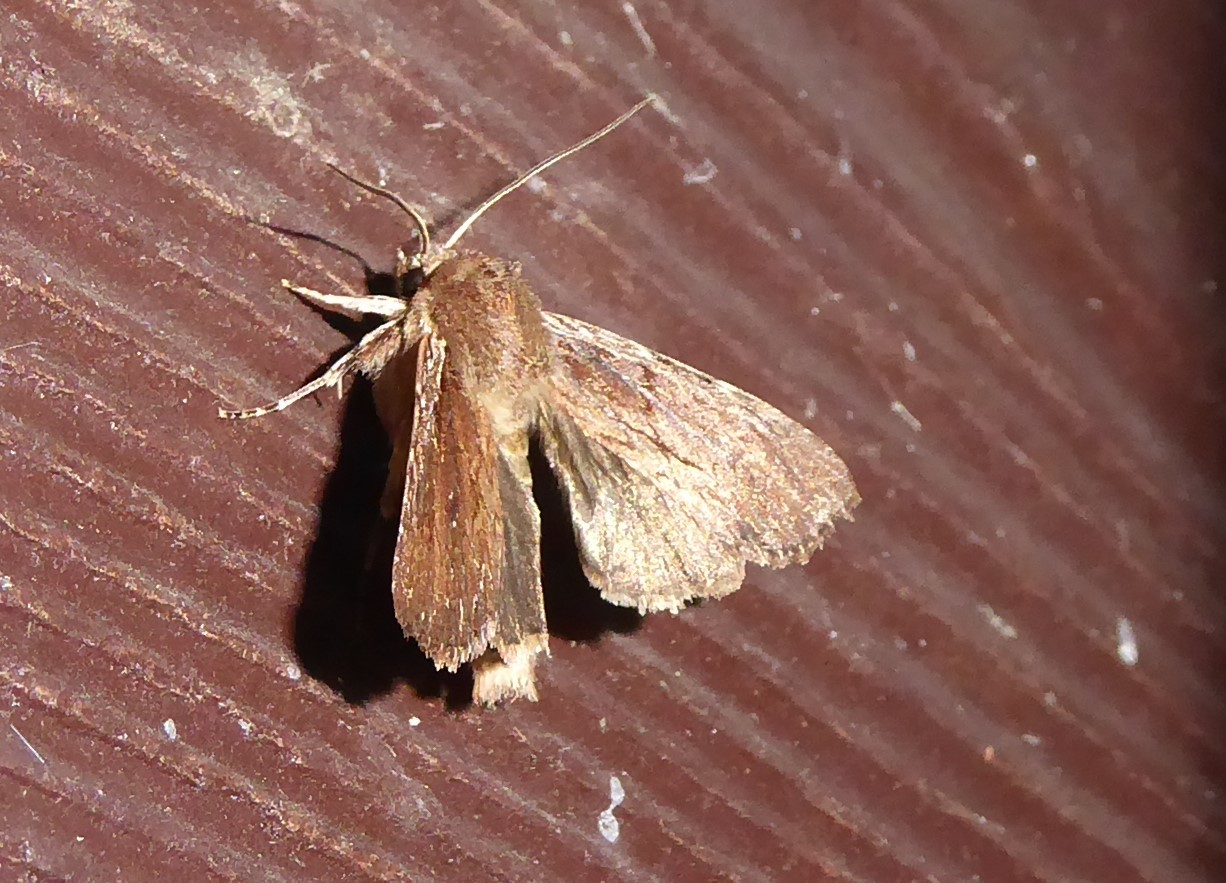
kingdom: Animalia
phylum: Arthropoda
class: Insecta
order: Lepidoptera
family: Noctuidae
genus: Ichneutica
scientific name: Ichneutica
